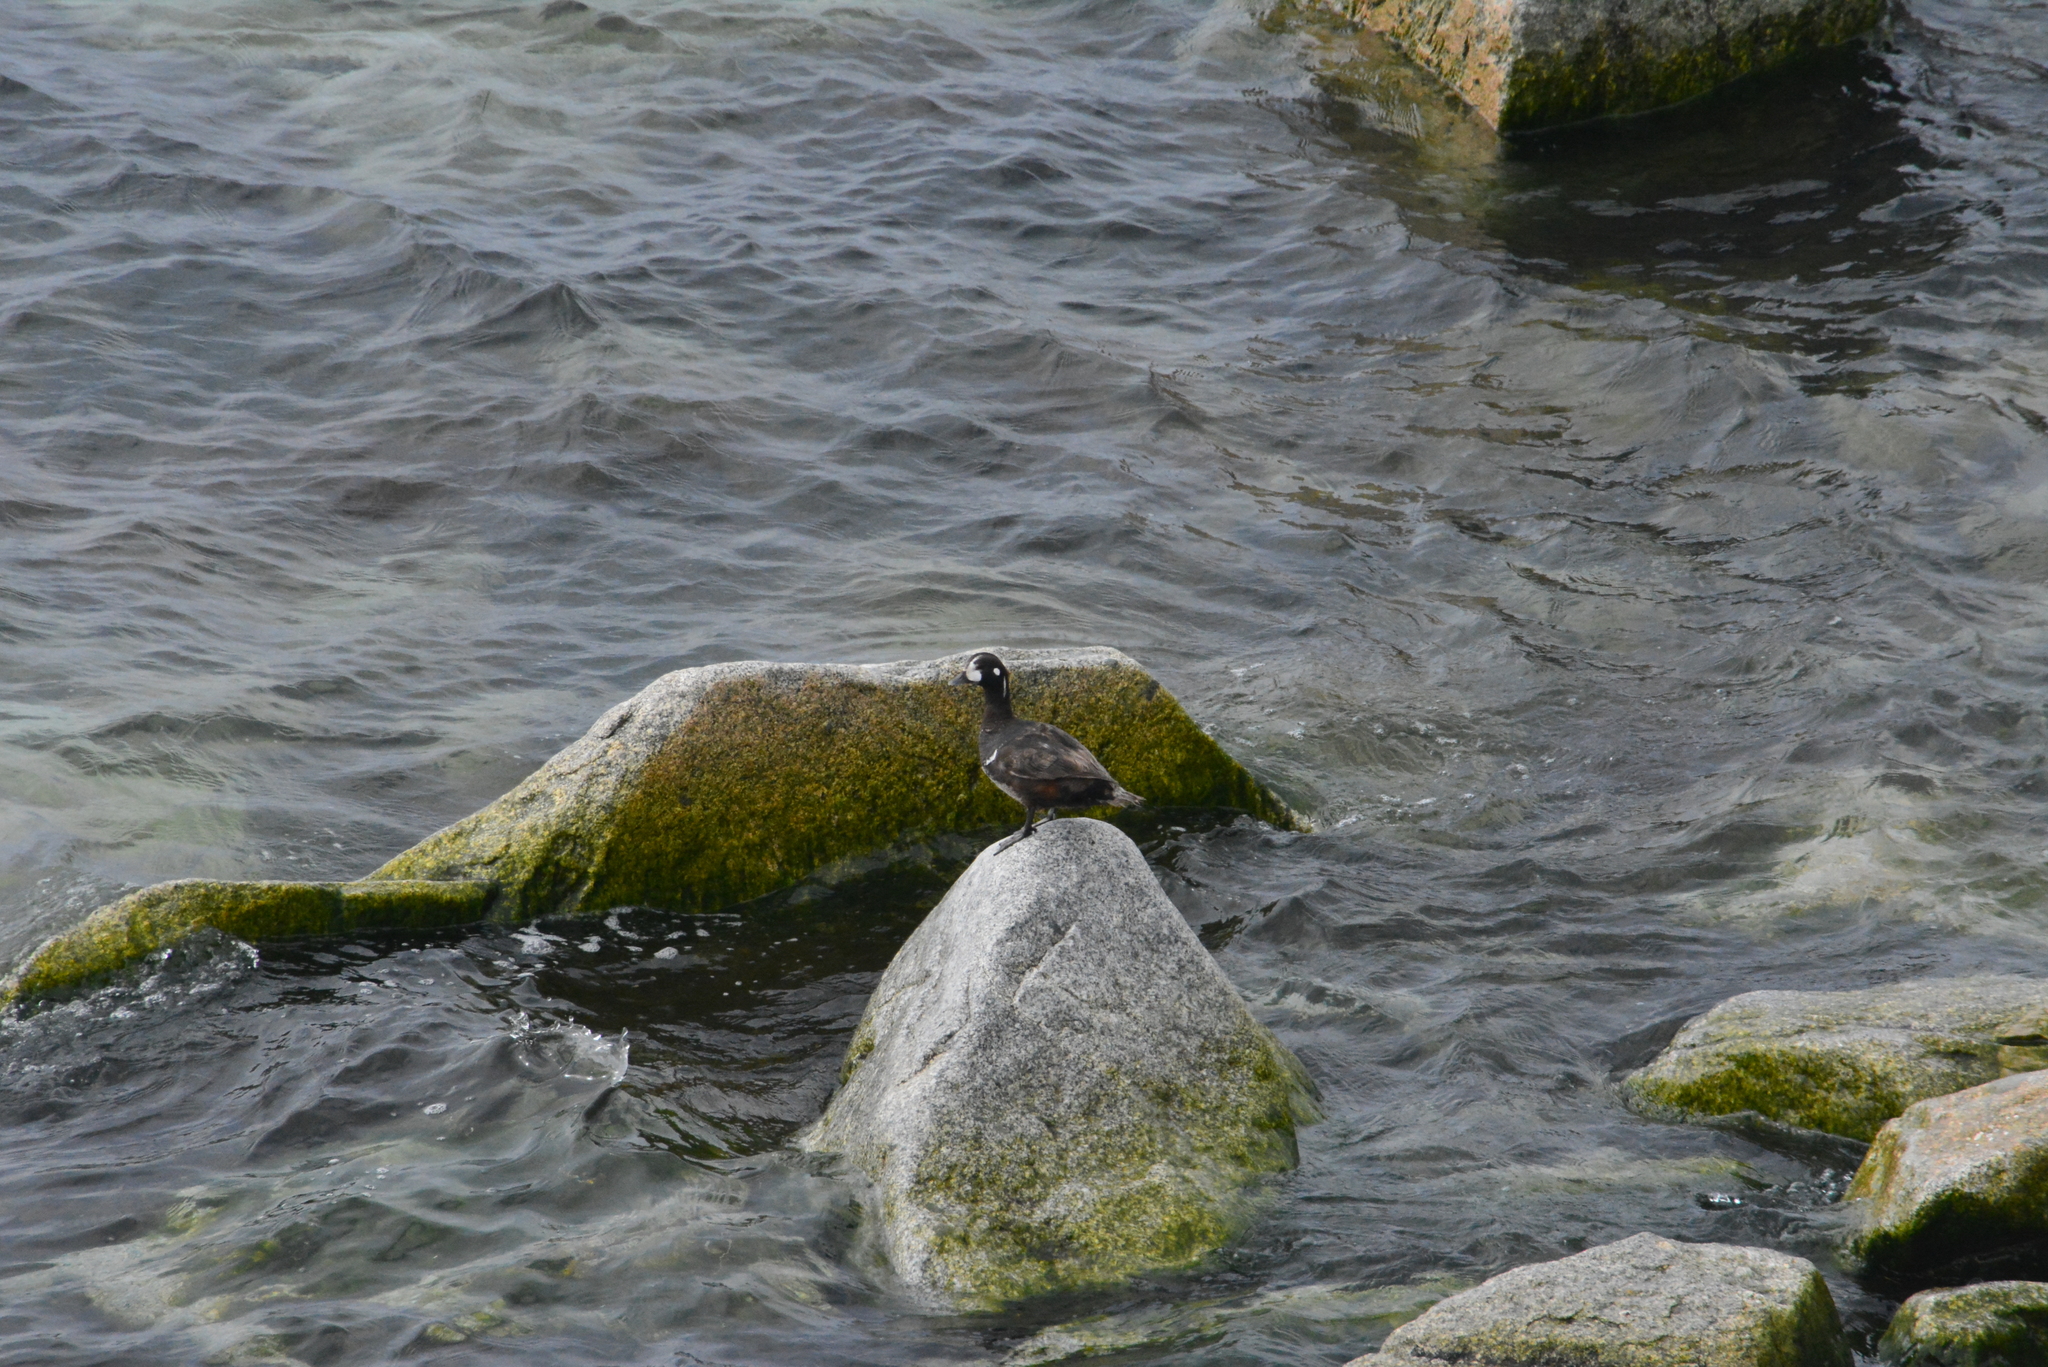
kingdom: Animalia
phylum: Chordata
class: Aves
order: Anseriformes
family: Anatidae
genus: Histrionicus
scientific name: Histrionicus histrionicus
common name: Harlequin duck
